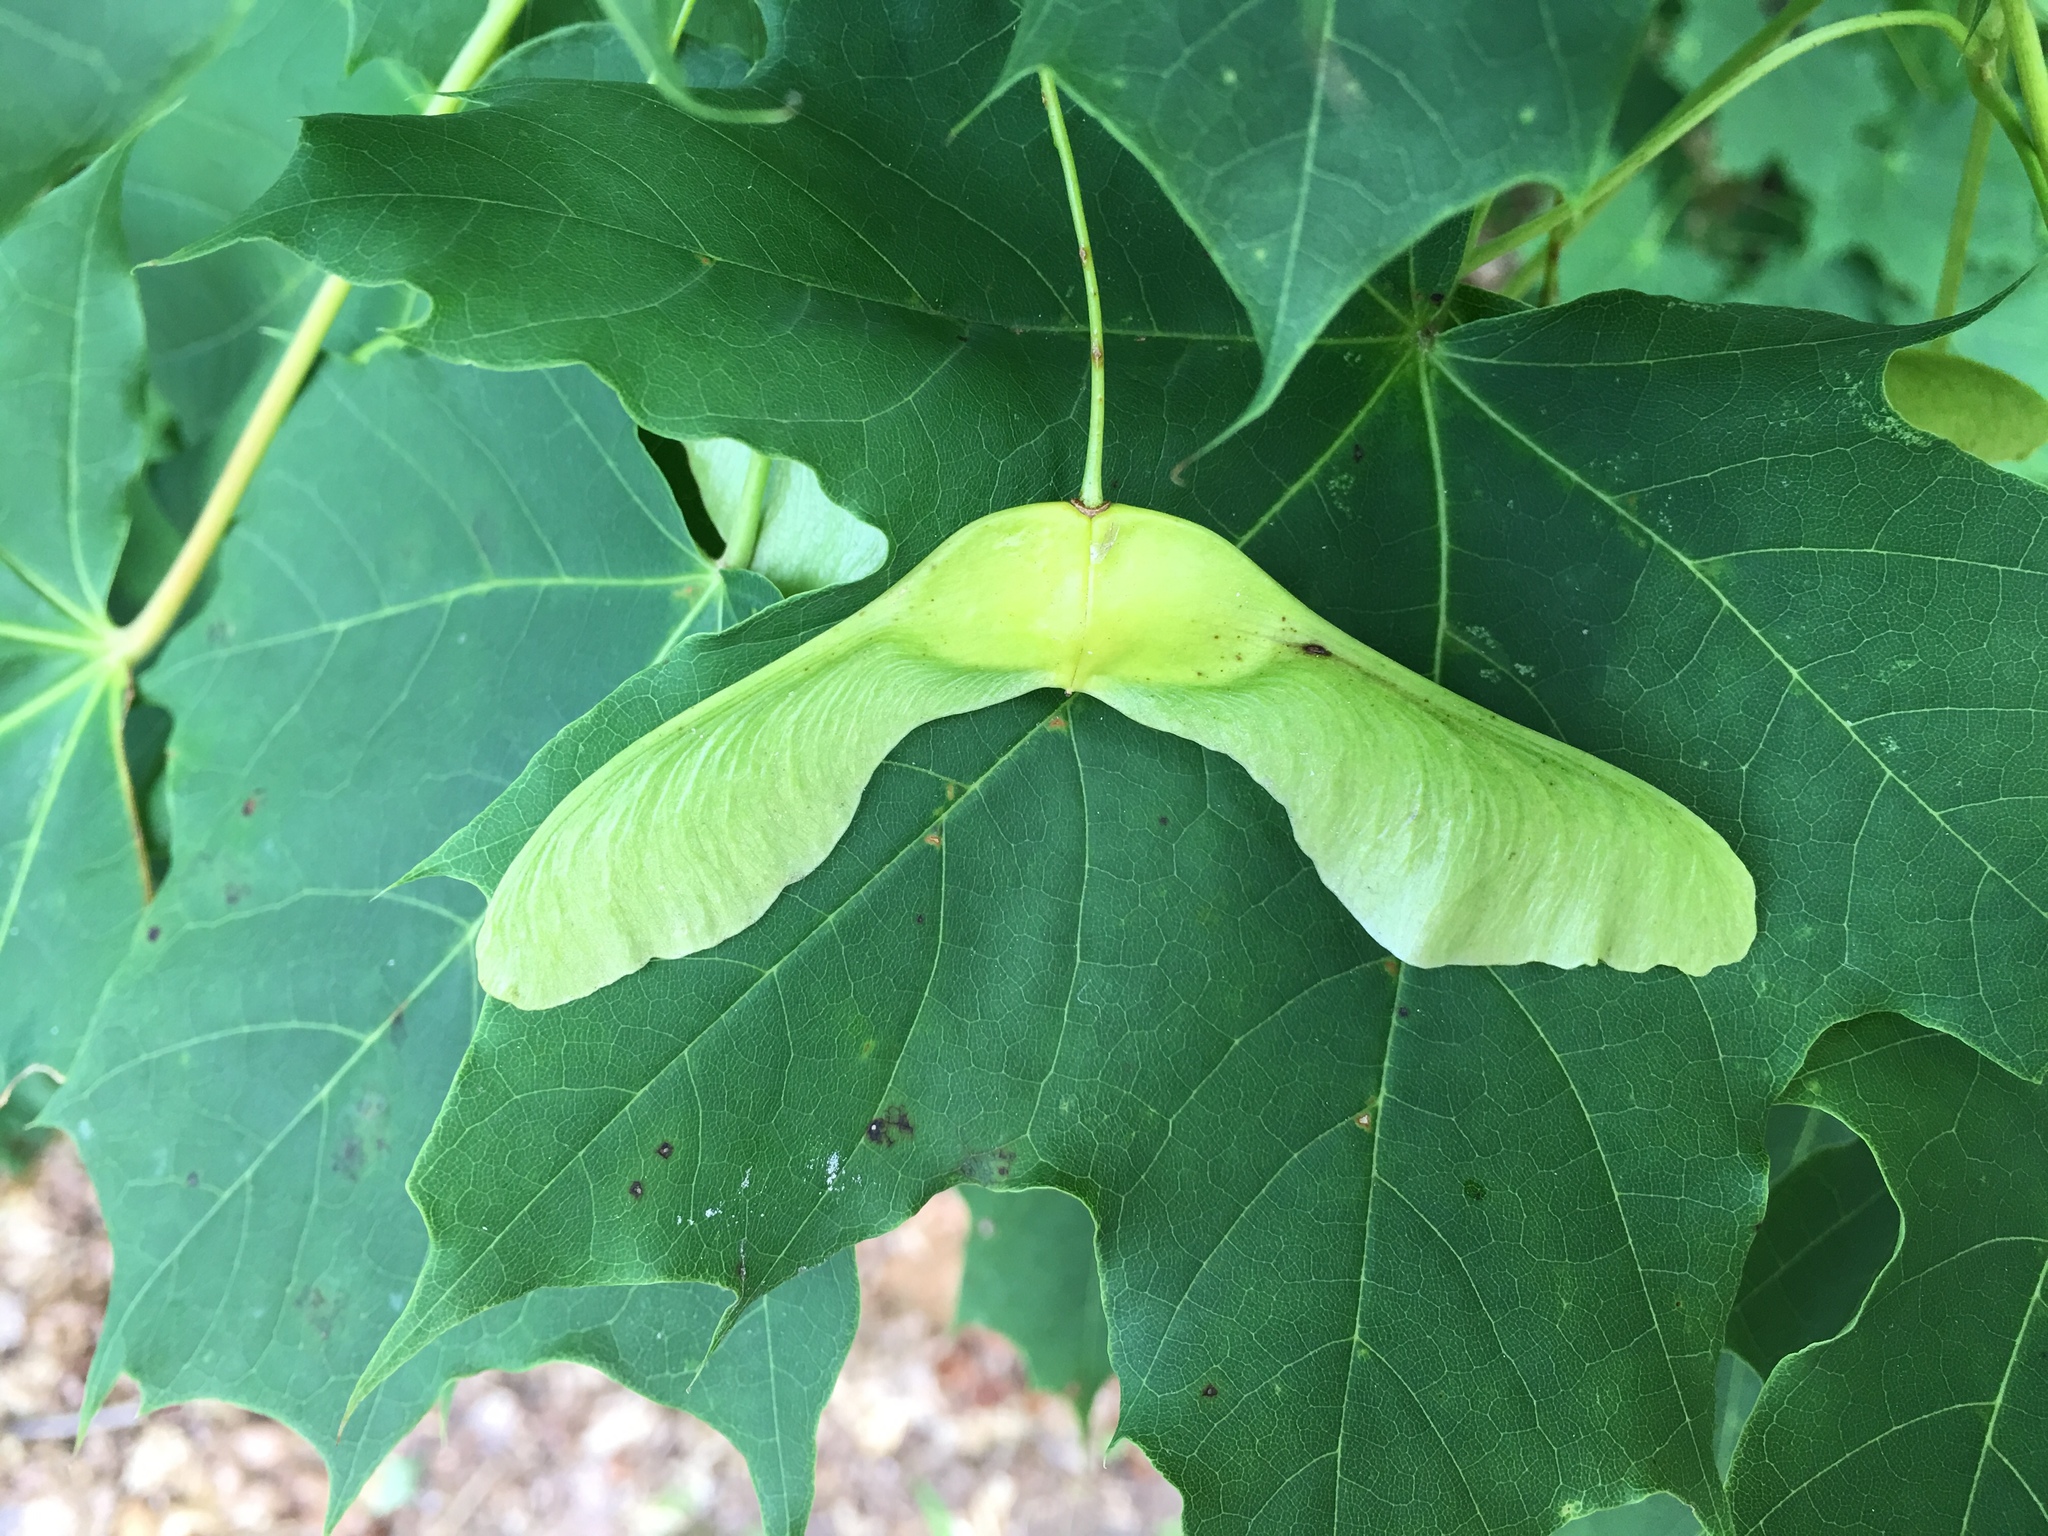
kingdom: Plantae
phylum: Tracheophyta
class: Magnoliopsida
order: Sapindales
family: Sapindaceae
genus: Acer
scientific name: Acer platanoides
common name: Norway maple
